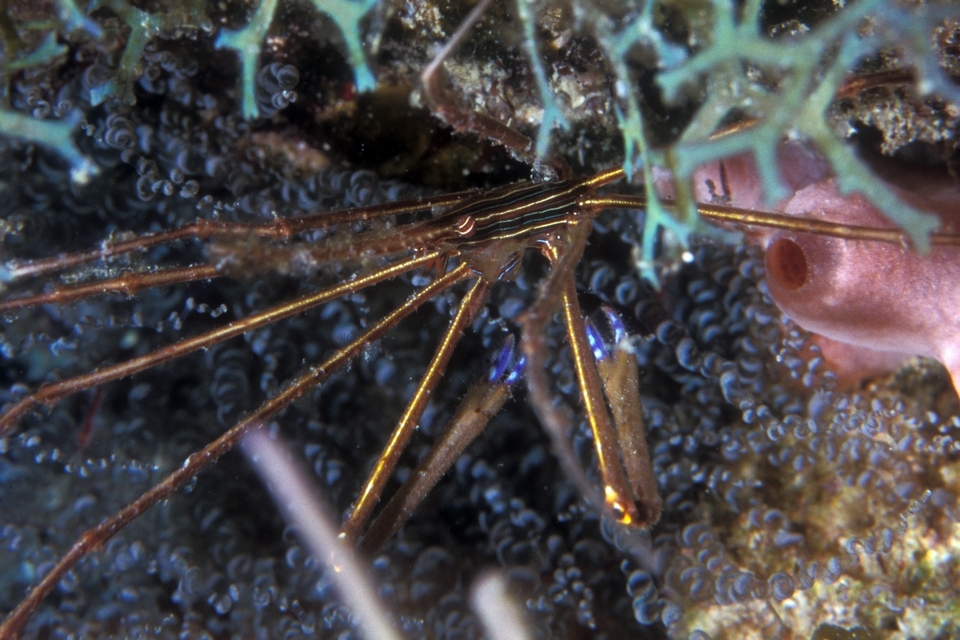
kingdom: Animalia
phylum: Arthropoda
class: Malacostraca
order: Decapoda
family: Inachoididae
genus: Stenorhynchus
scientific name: Stenorhynchus seticornis
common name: Arrow crab
